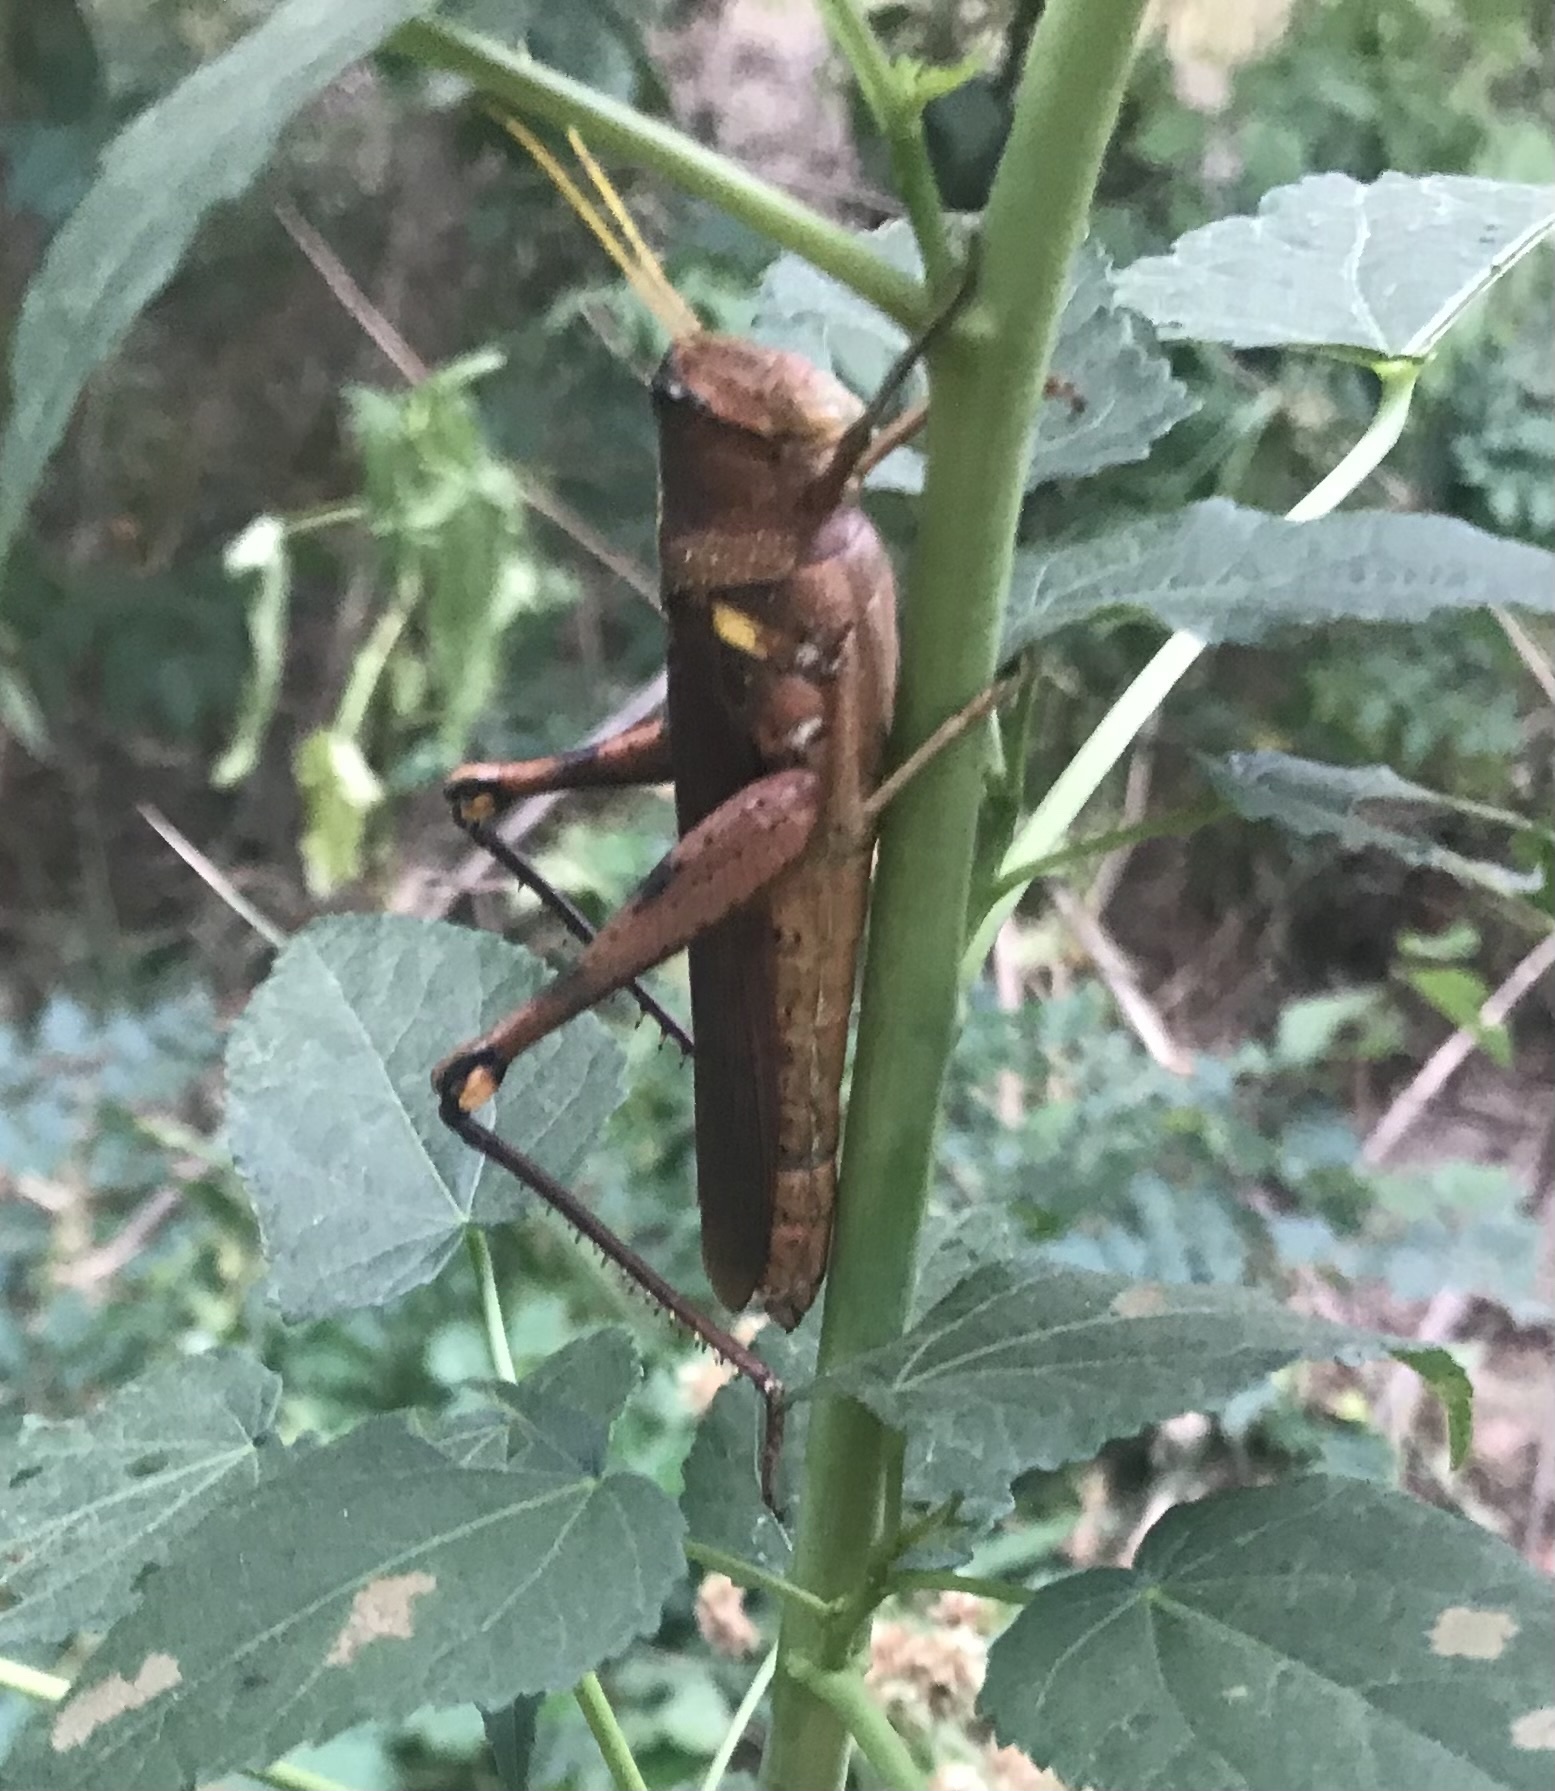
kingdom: Animalia
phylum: Arthropoda
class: Insecta
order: Orthoptera
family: Acrididae
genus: Schistocerca
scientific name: Schistocerca obscura
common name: Obscure bird grasshopper
